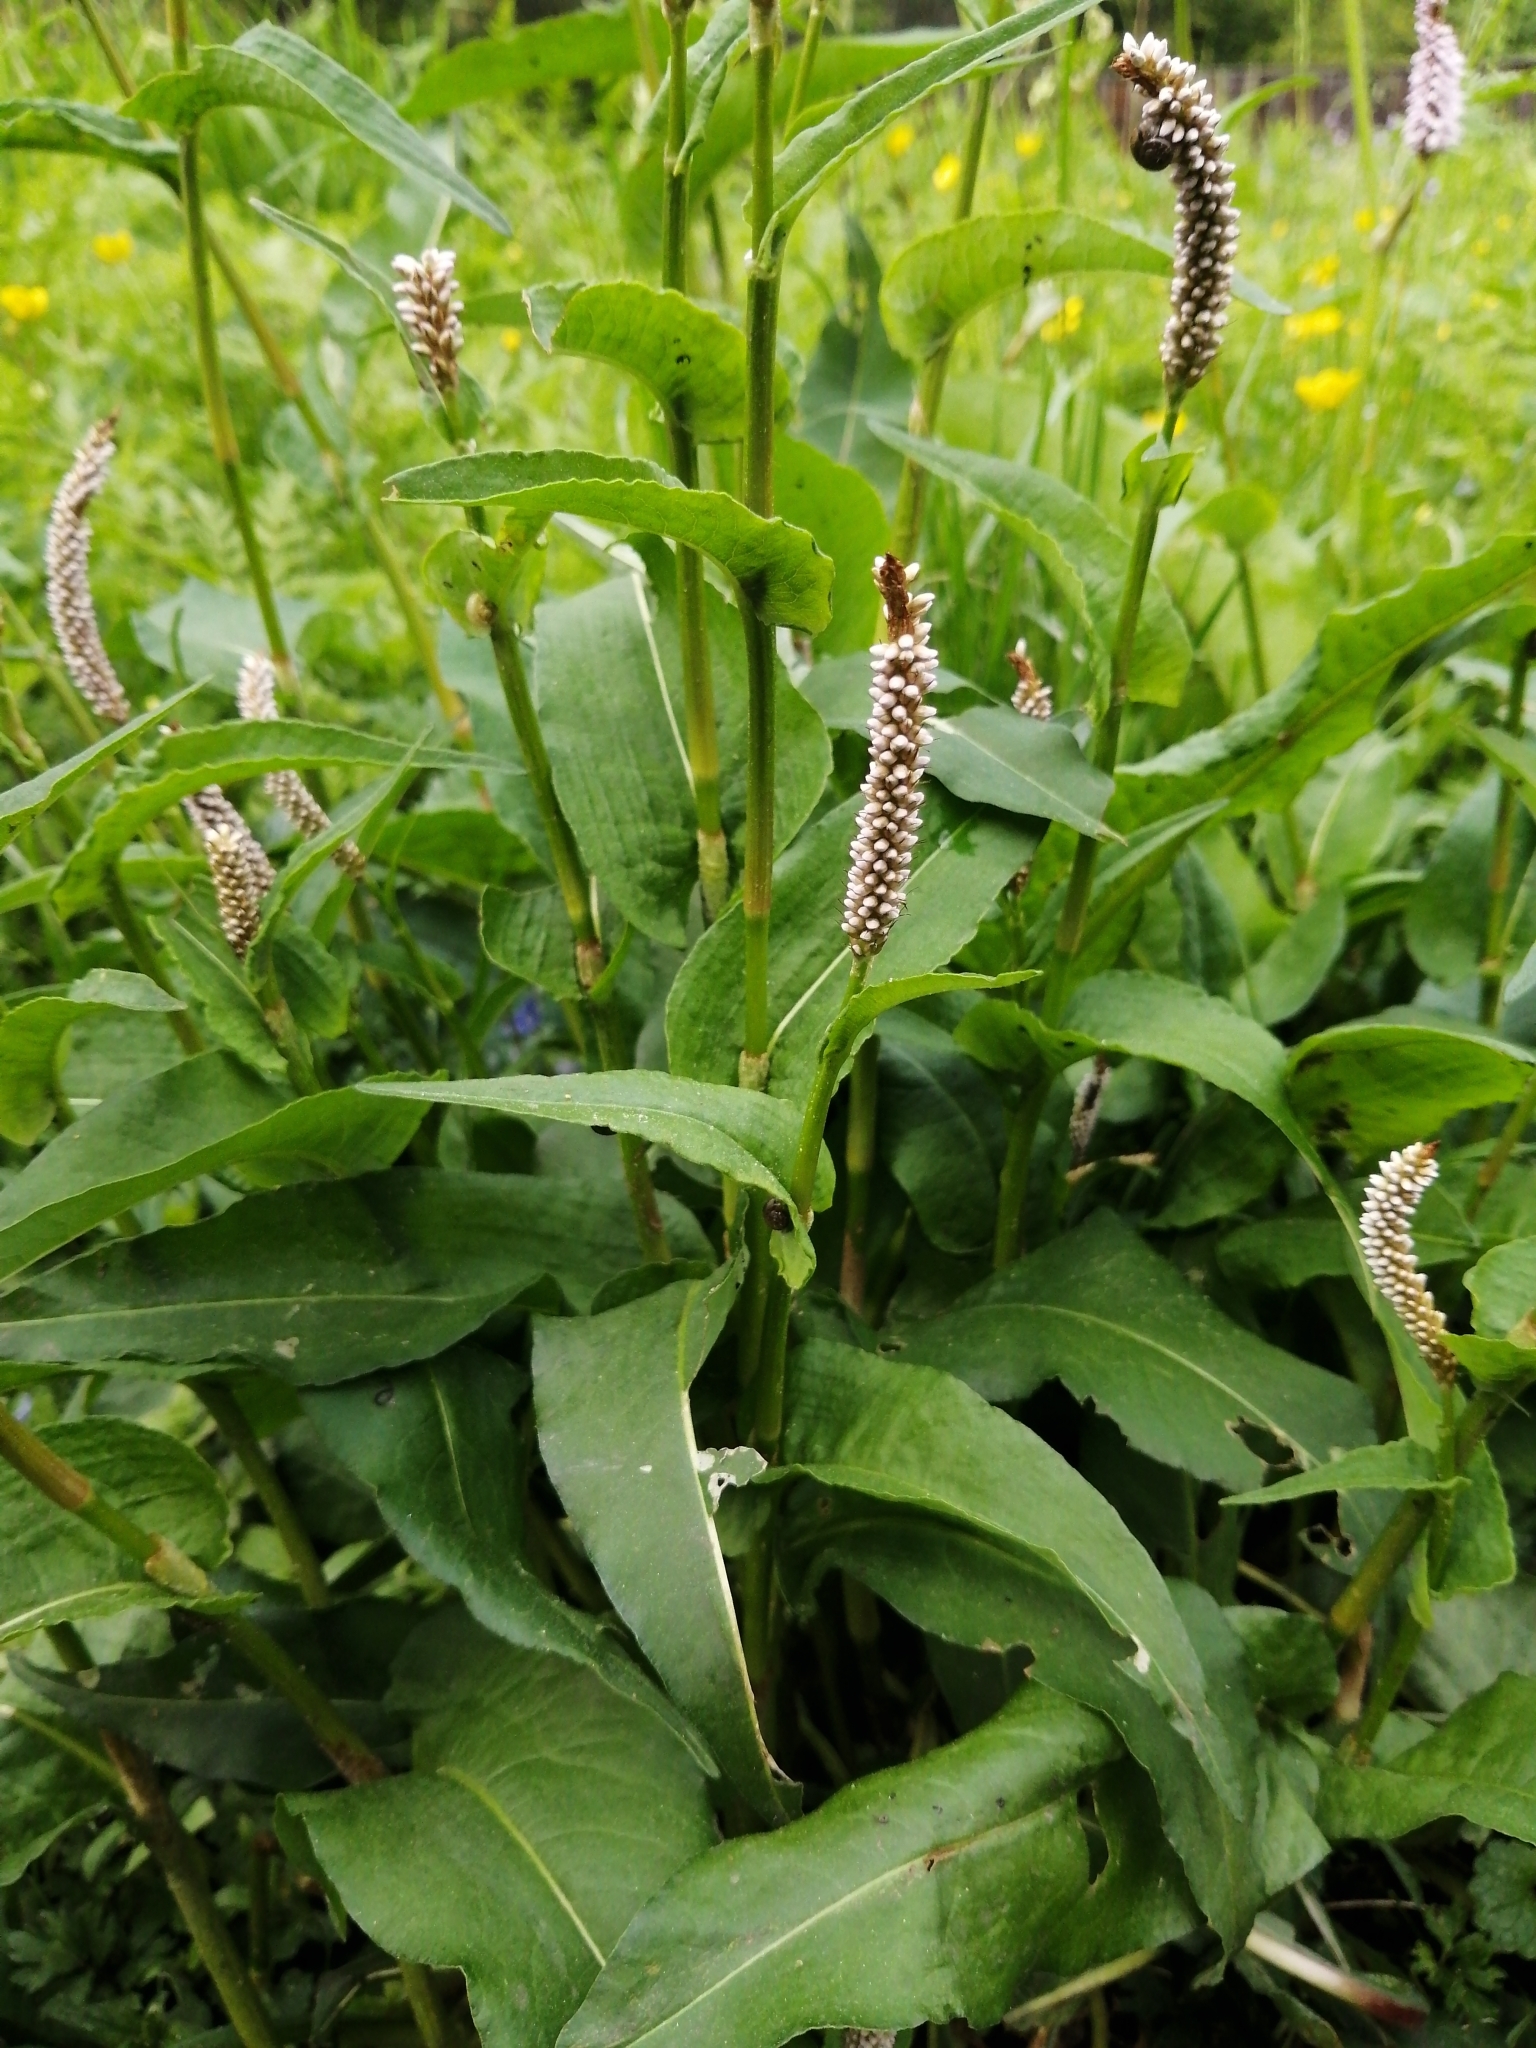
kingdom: Plantae
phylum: Tracheophyta
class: Magnoliopsida
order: Caryophyllales
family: Polygonaceae
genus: Bistorta
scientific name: Bistorta officinalis
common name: Common bistort
